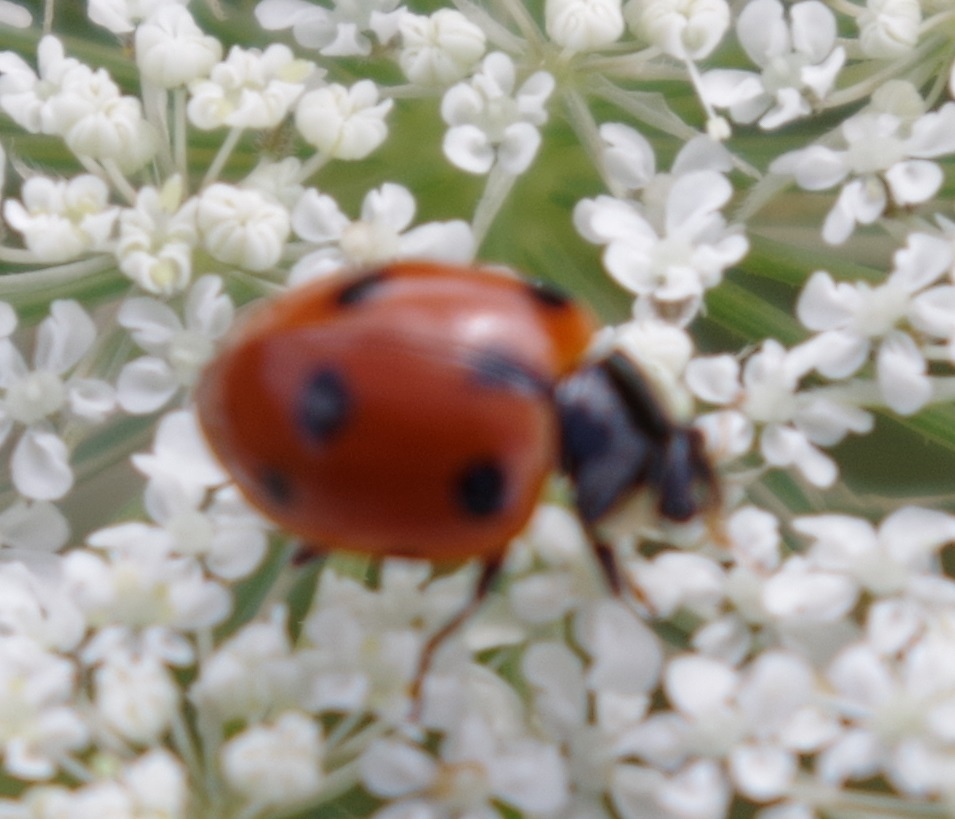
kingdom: Animalia
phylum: Arthropoda
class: Insecta
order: Coleoptera
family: Coccinellidae
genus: Ceratomegilla
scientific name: Ceratomegilla undecimnotata
